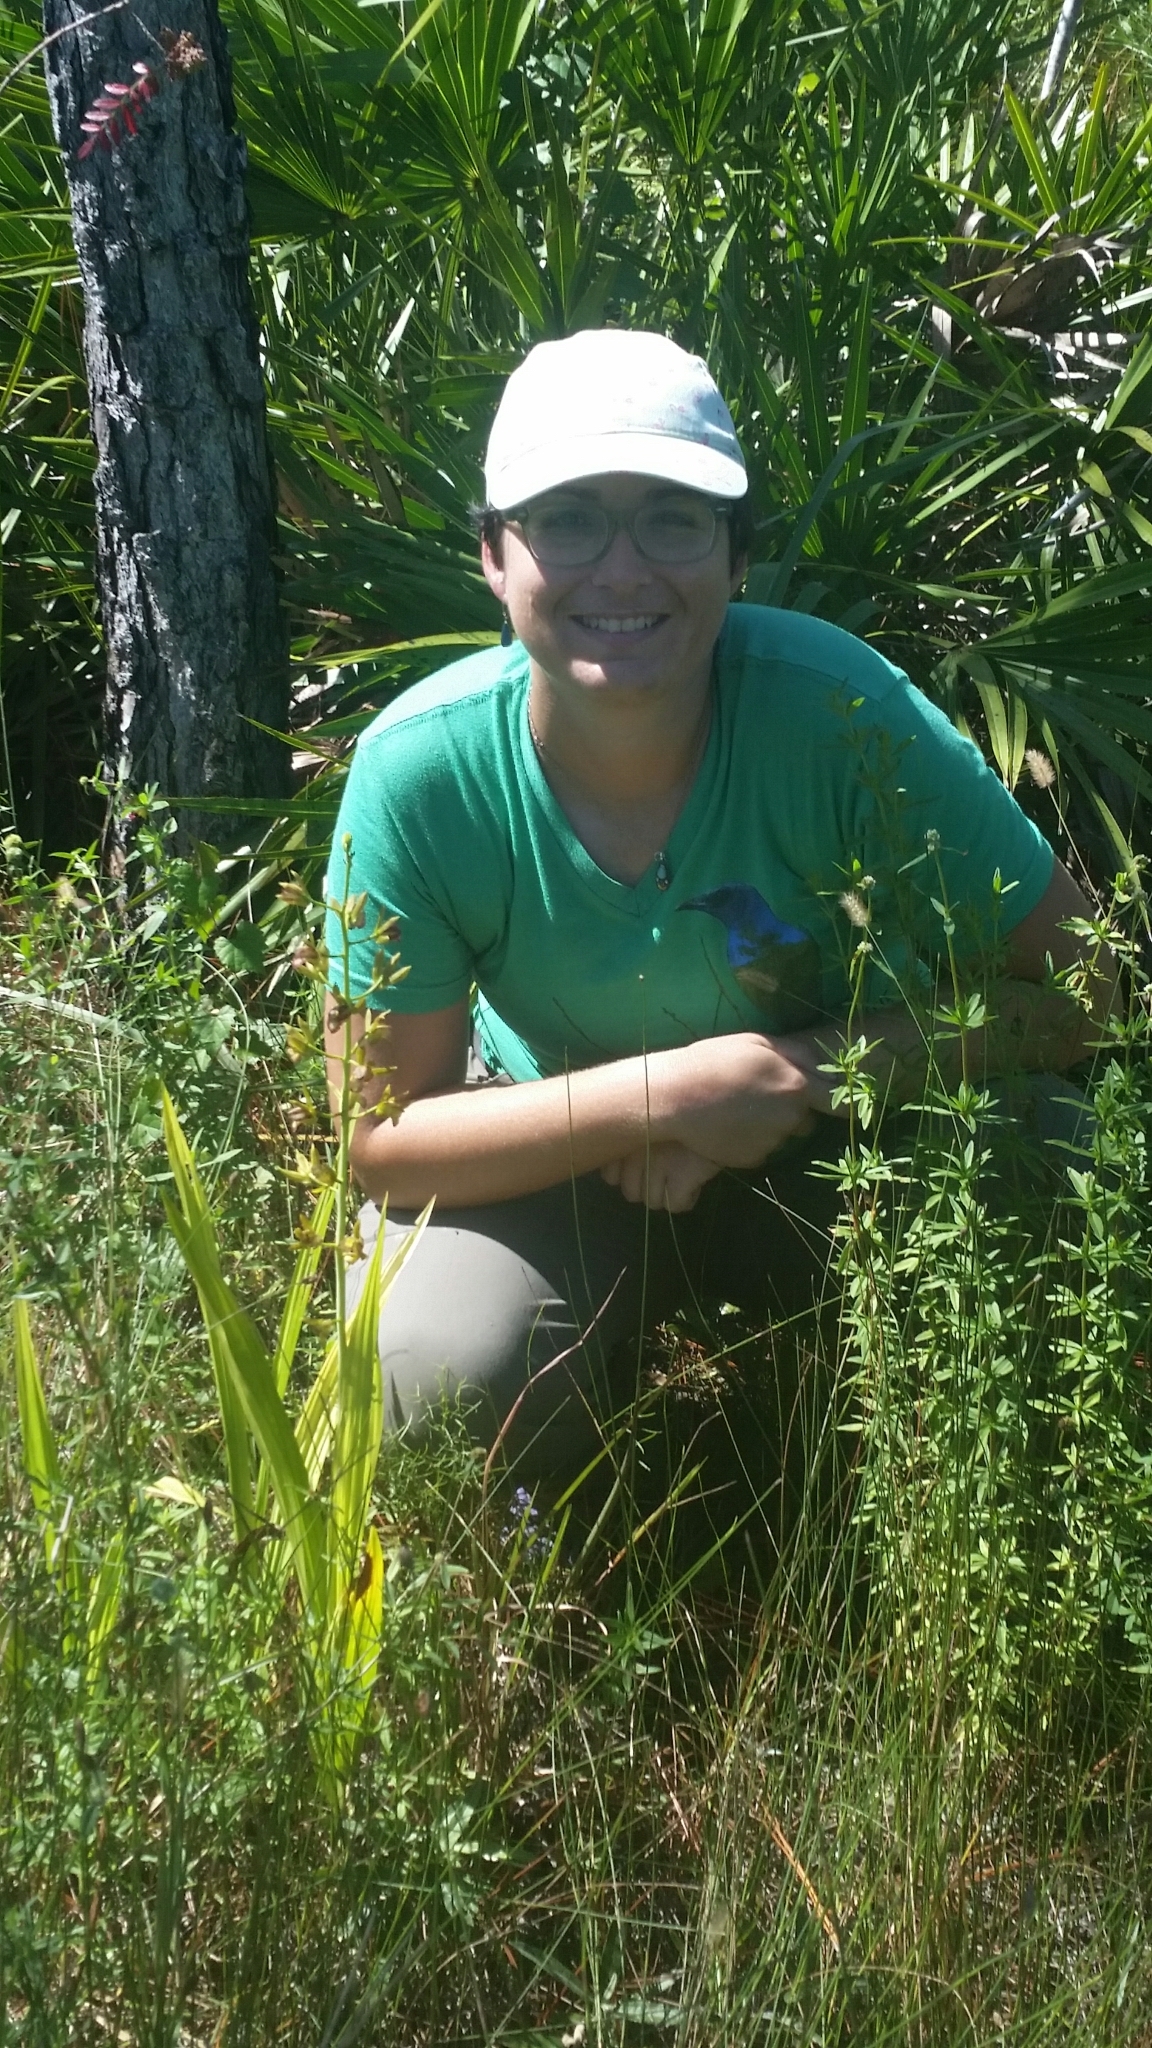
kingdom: Plantae
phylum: Tracheophyta
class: Liliopsida
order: Asparagales
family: Orchidaceae
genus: Eulophia
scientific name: Eulophia alta
